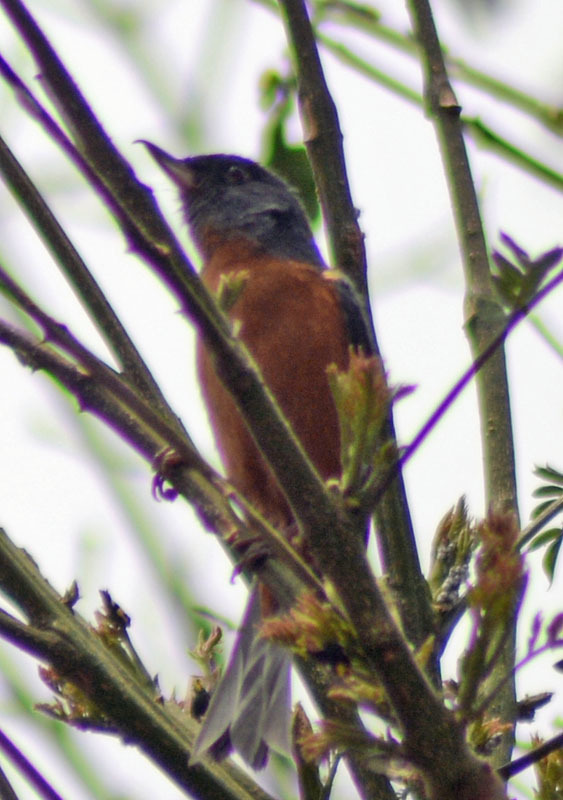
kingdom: Animalia
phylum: Chordata
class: Aves
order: Passeriformes
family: Thraupidae
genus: Diglossa
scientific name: Diglossa baritula
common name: Cinnamon-bellied flowerpiercer
